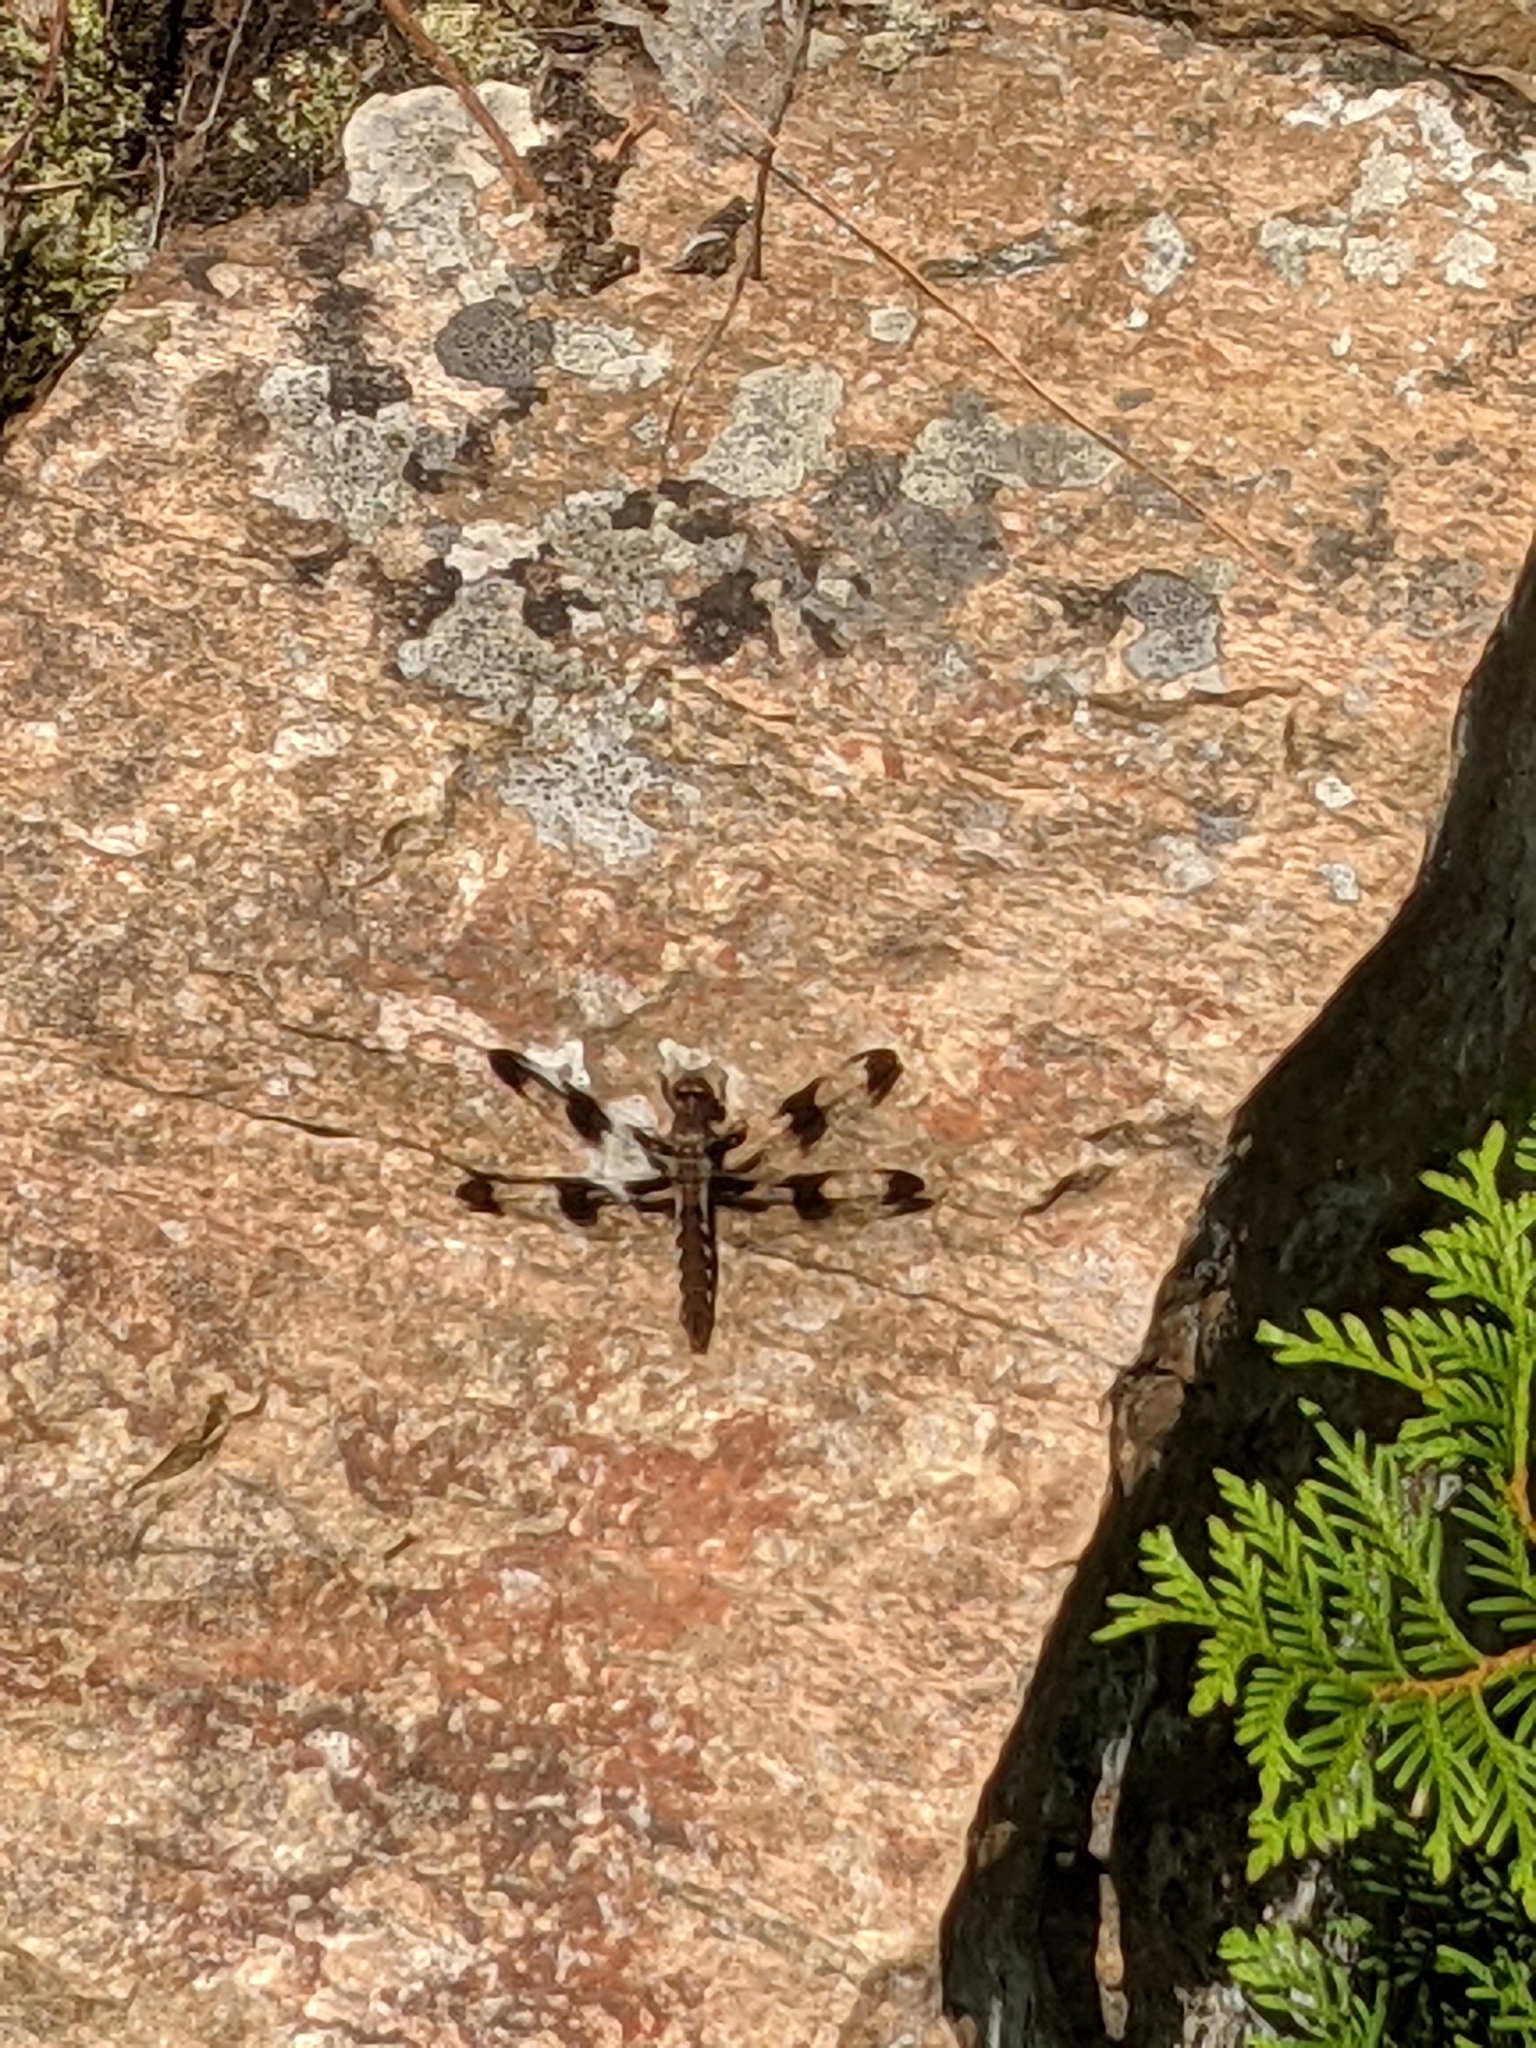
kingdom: Animalia
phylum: Arthropoda
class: Insecta
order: Odonata
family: Libellulidae
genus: Plathemis
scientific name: Plathemis lydia
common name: Common whitetail
